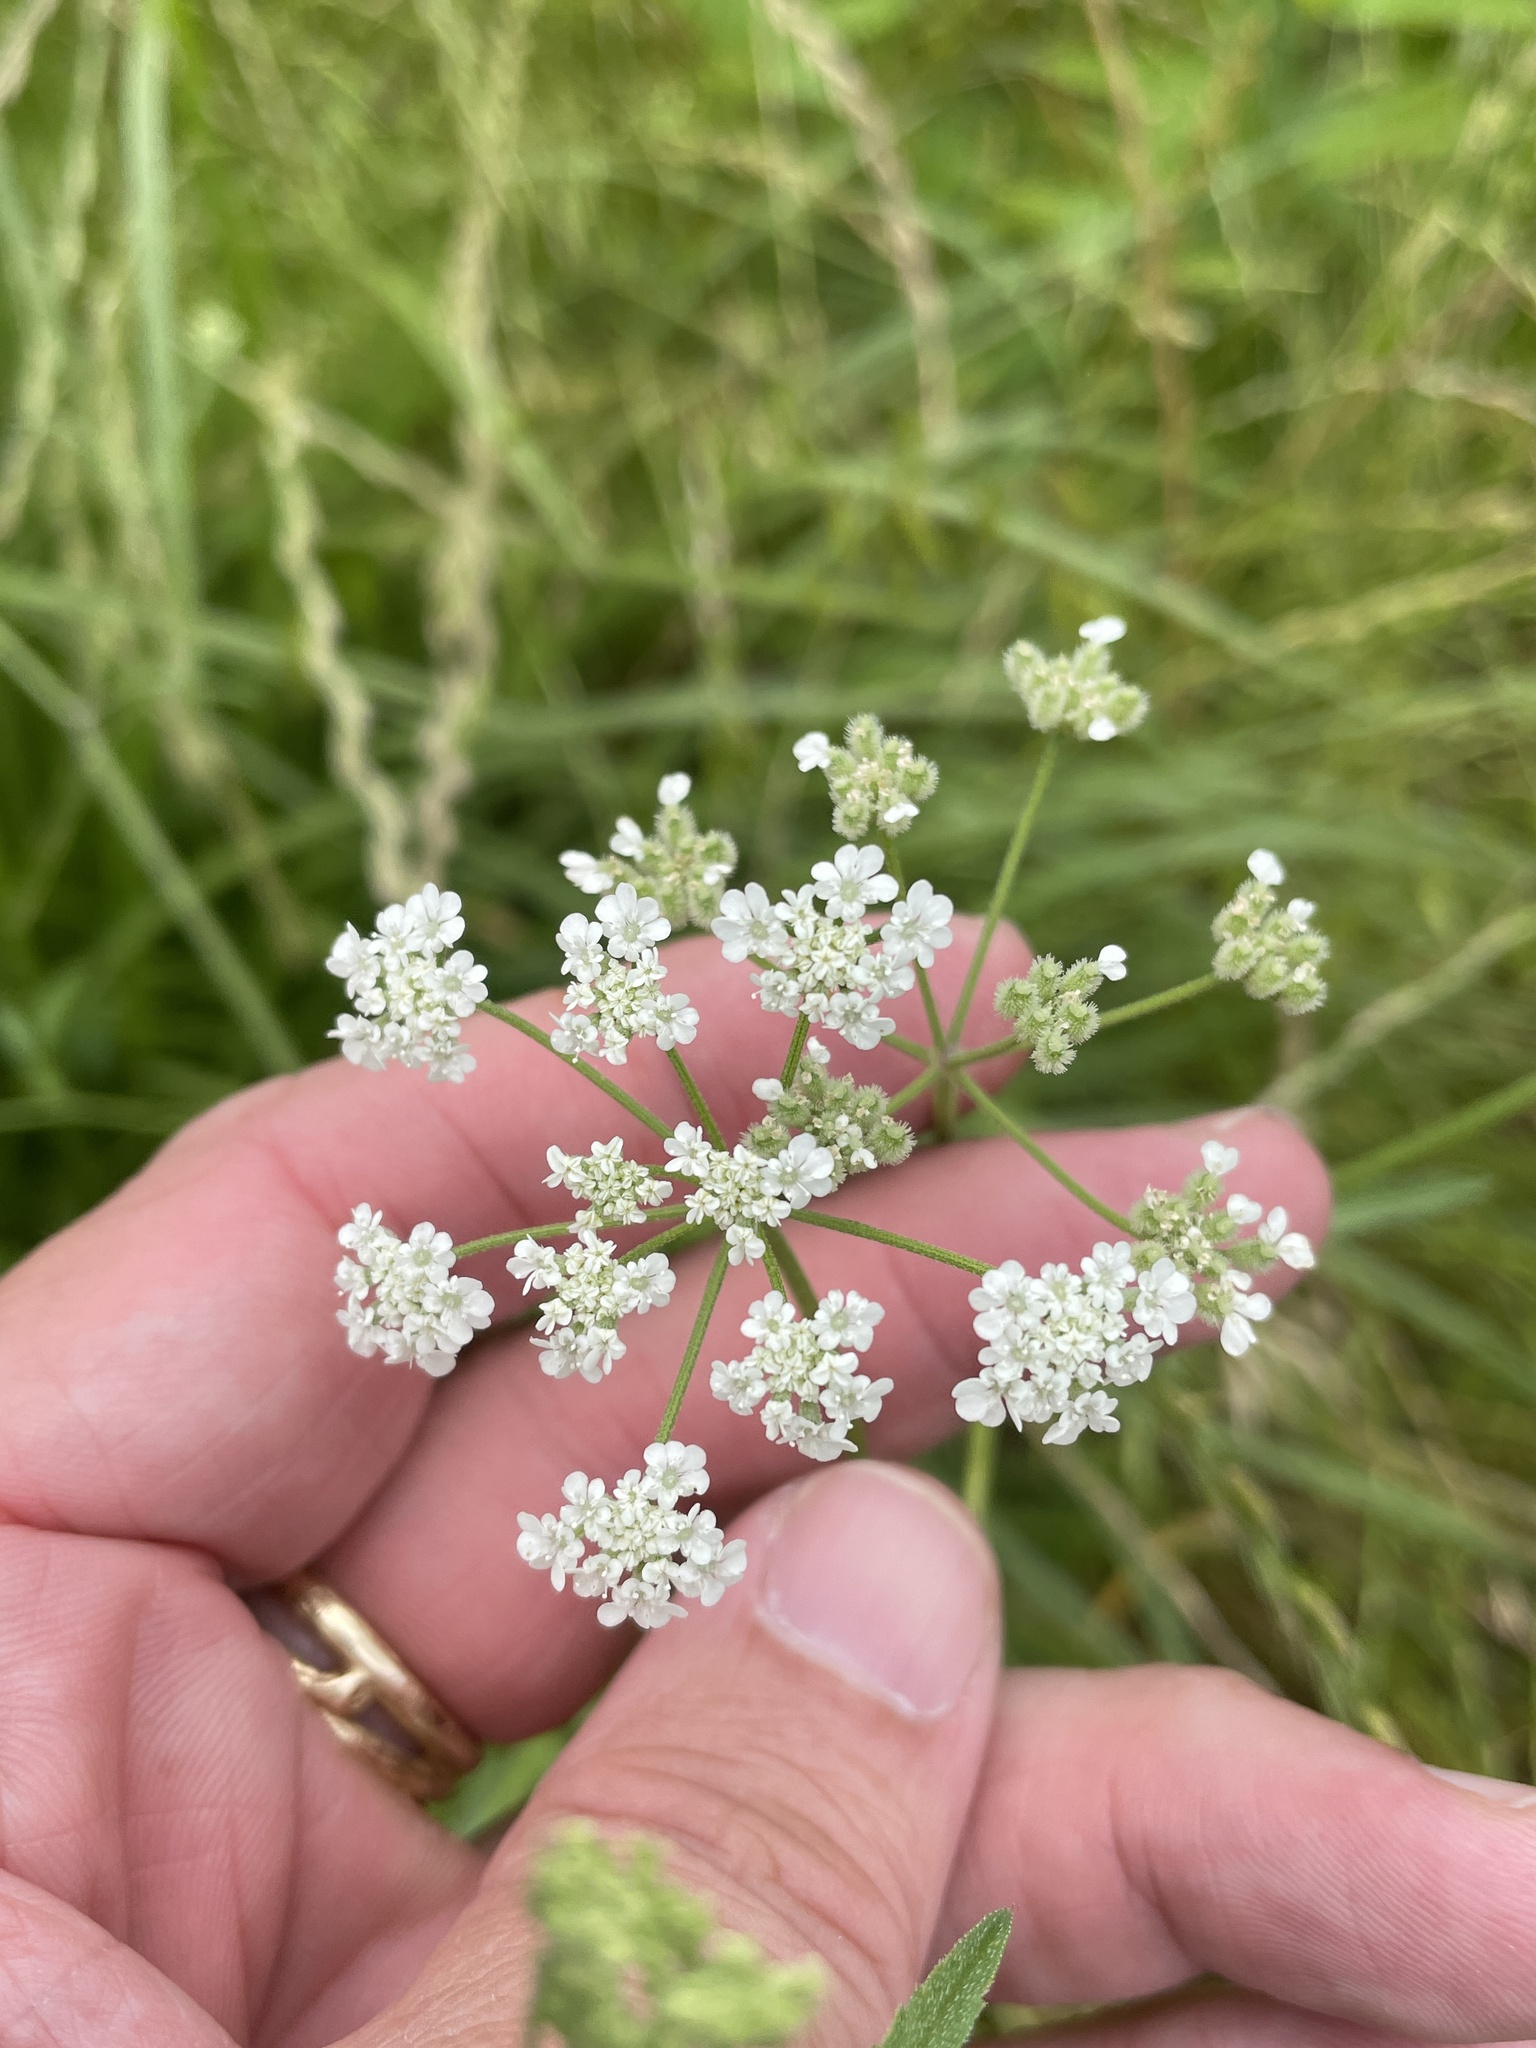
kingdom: Plantae
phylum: Tracheophyta
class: Magnoliopsida
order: Apiales
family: Apiaceae
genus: Torilis
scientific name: Torilis arvensis
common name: Spreading hedge-parsley
